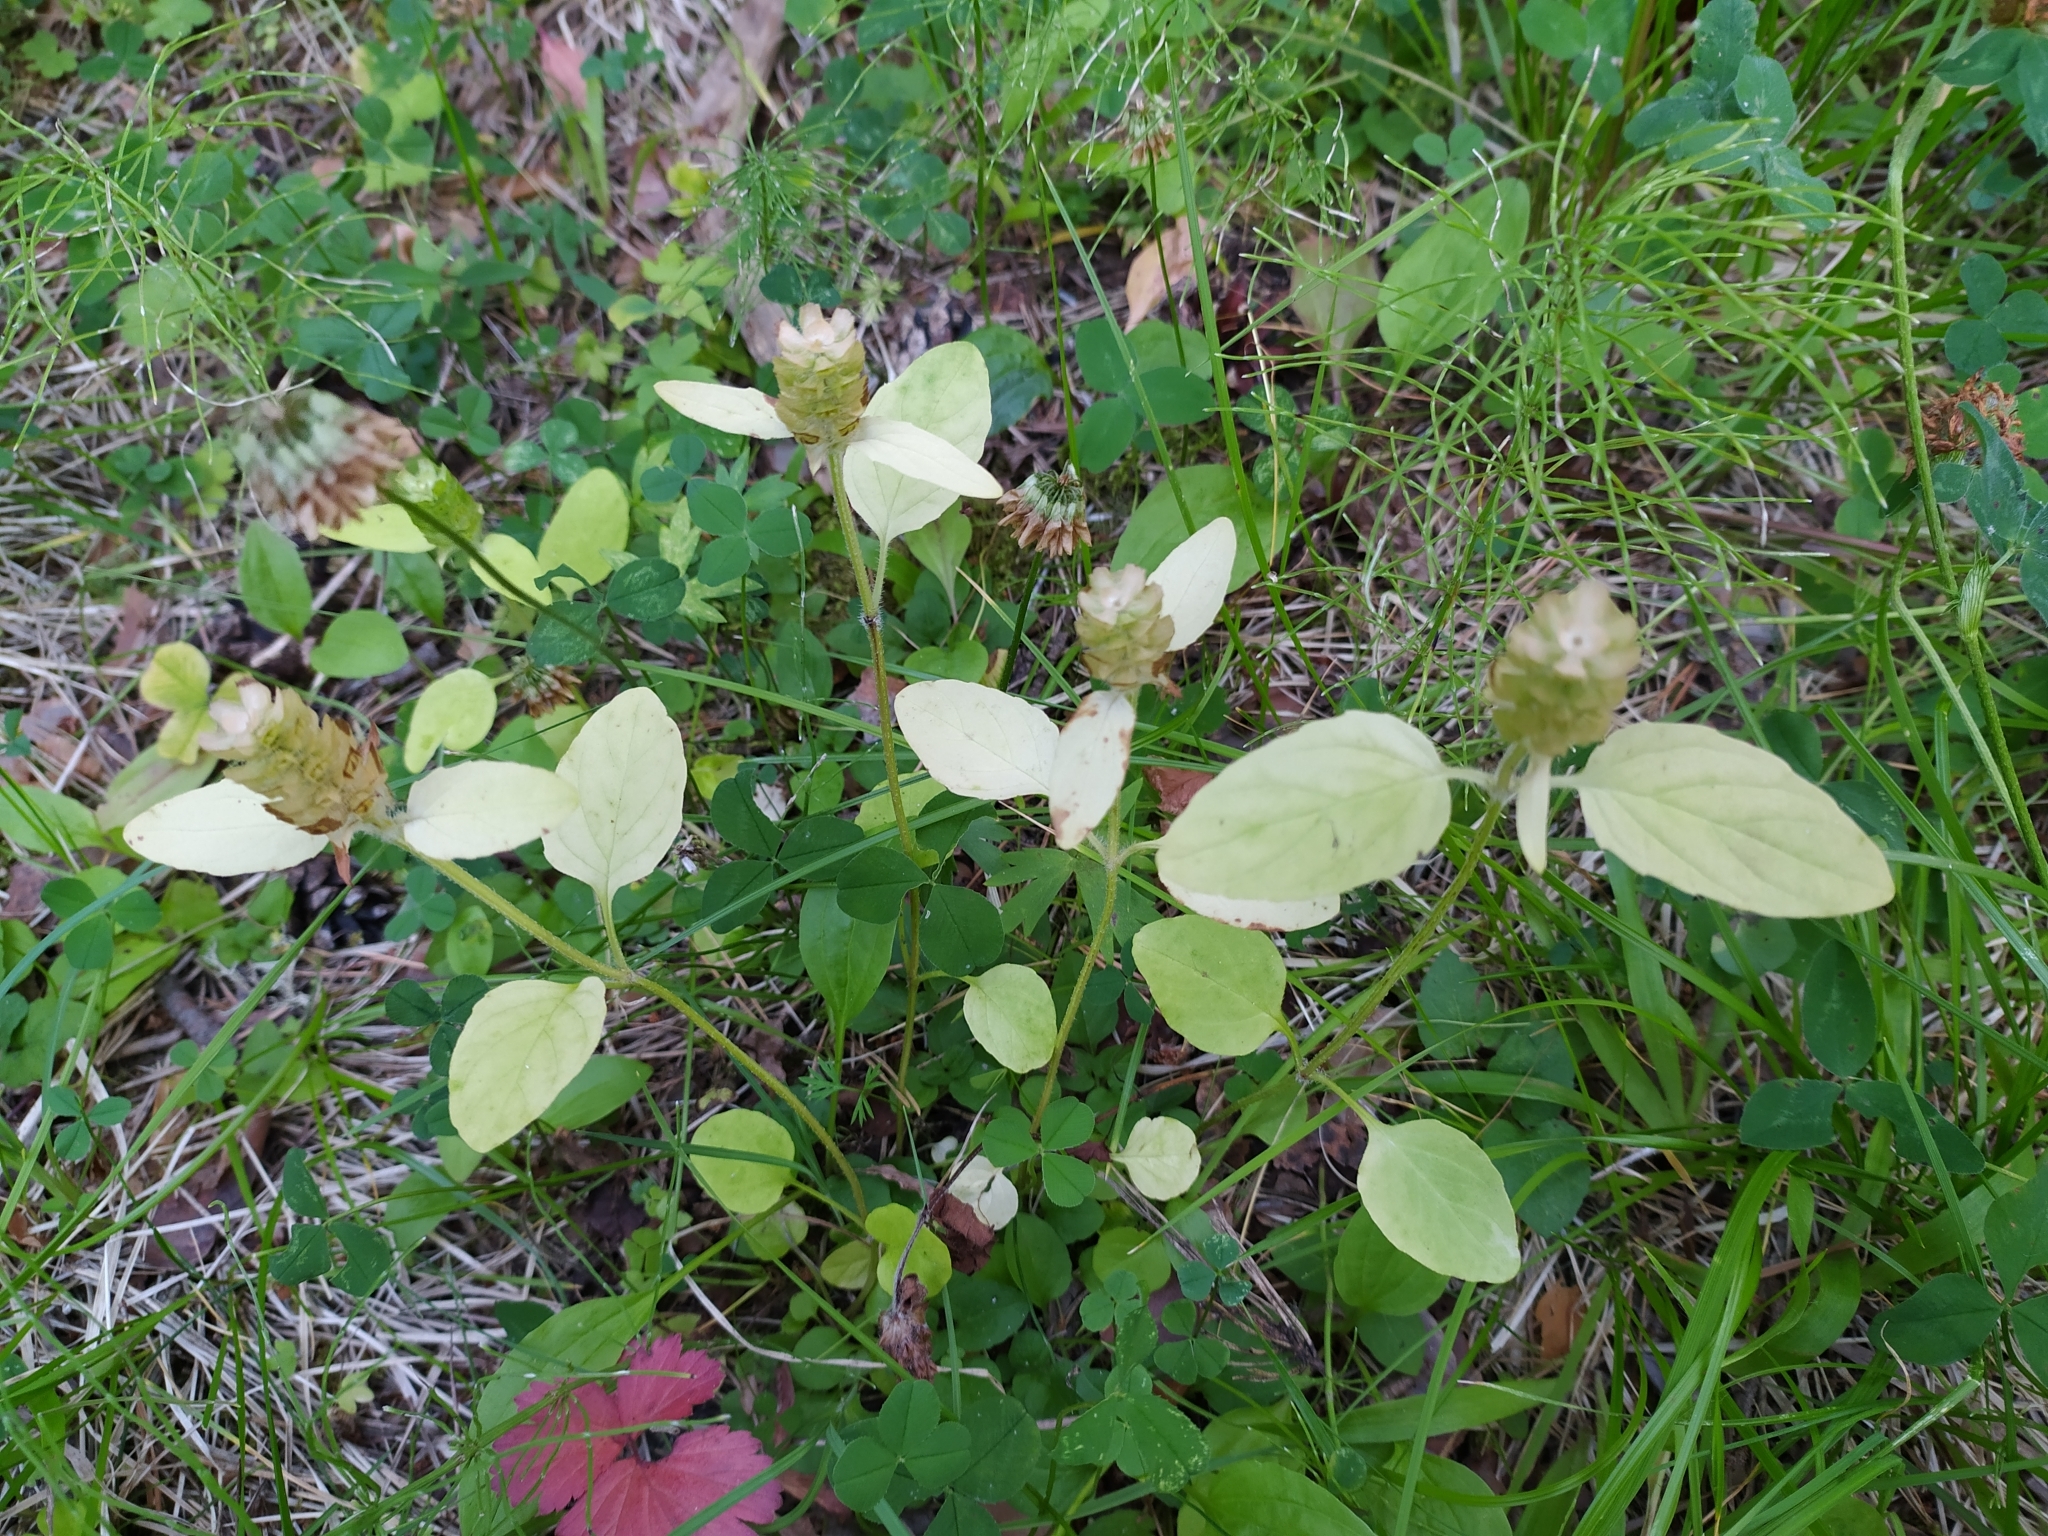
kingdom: Plantae
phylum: Tracheophyta
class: Magnoliopsida
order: Lamiales
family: Lamiaceae
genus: Prunella
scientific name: Prunella vulgaris
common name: Heal-all
